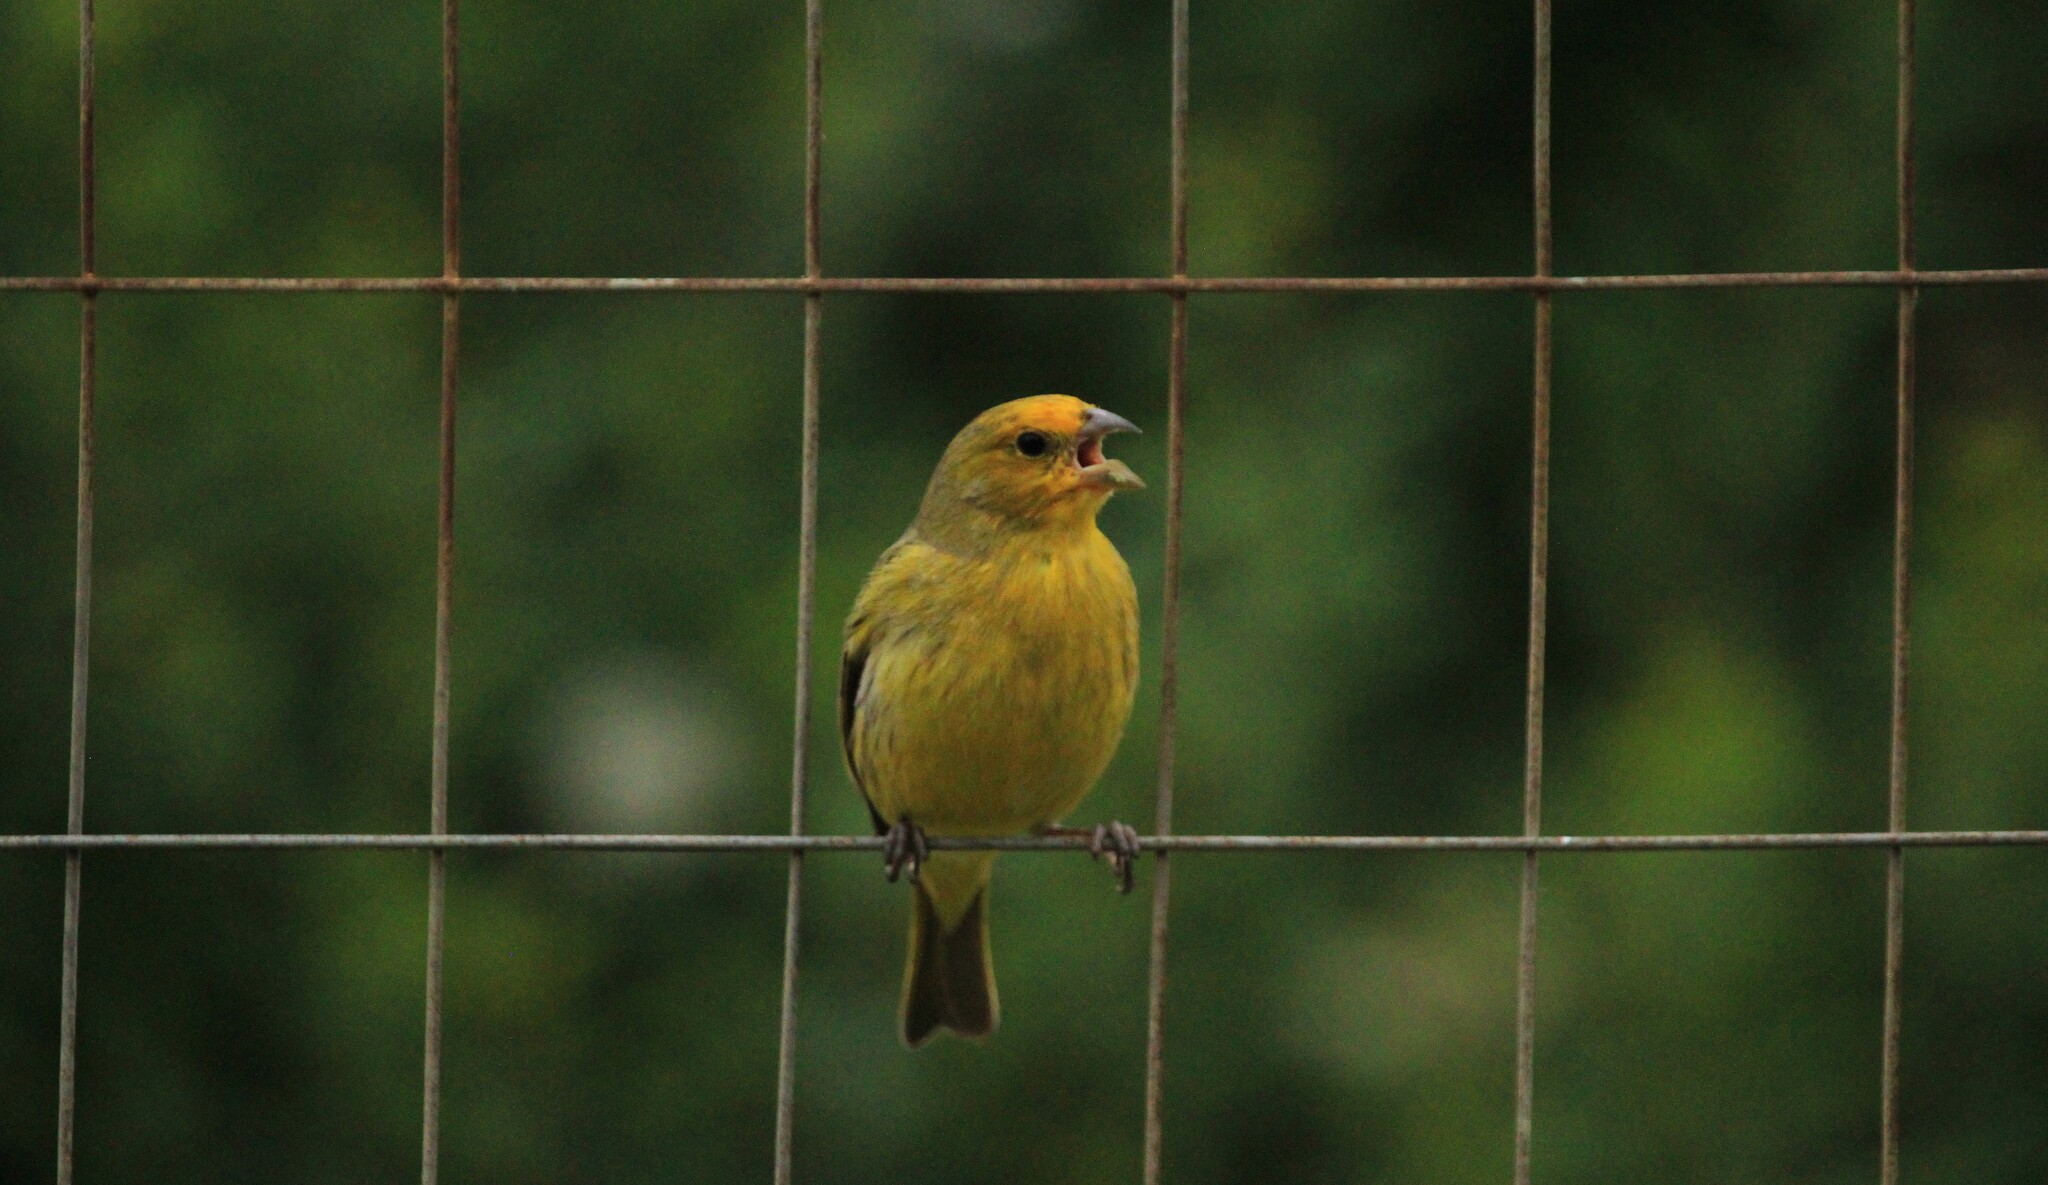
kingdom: Animalia
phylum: Chordata
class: Aves
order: Passeriformes
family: Thraupidae
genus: Sicalis
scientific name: Sicalis flaveola
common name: Saffron finch
